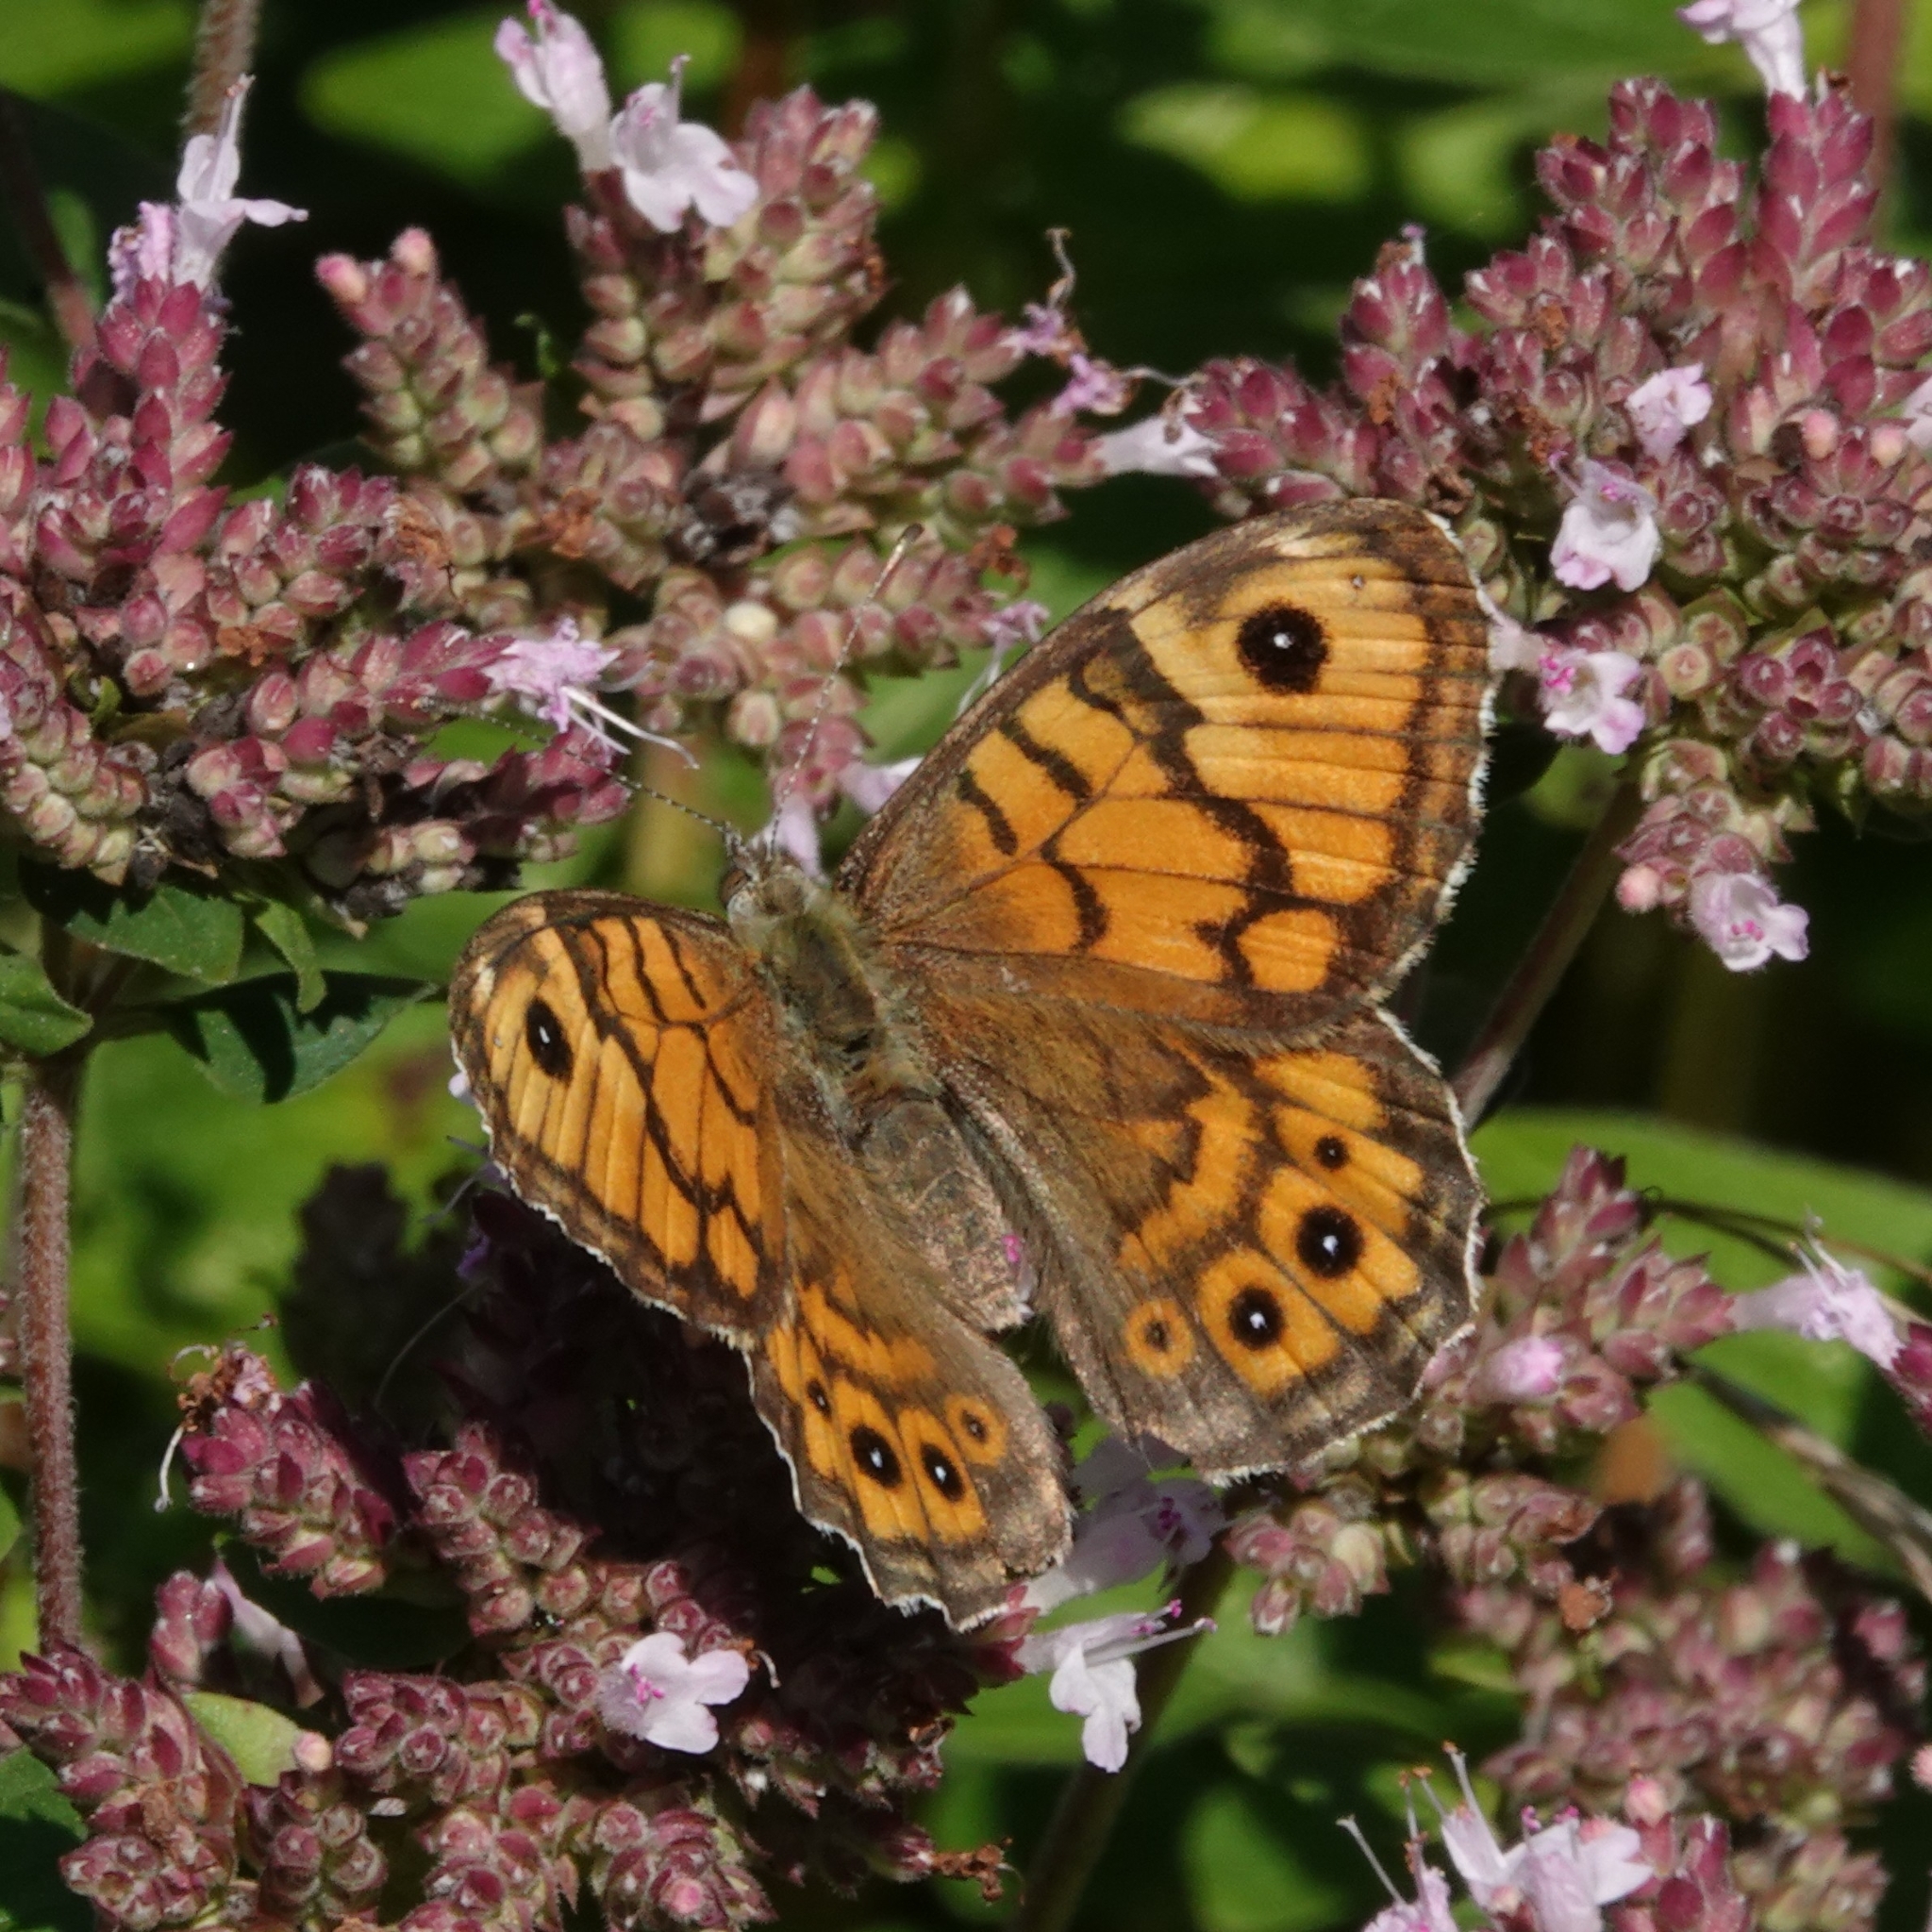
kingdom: Animalia
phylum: Arthropoda
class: Insecta
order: Lepidoptera
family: Nymphalidae
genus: Pararge
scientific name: Pararge Lasiommata megera
